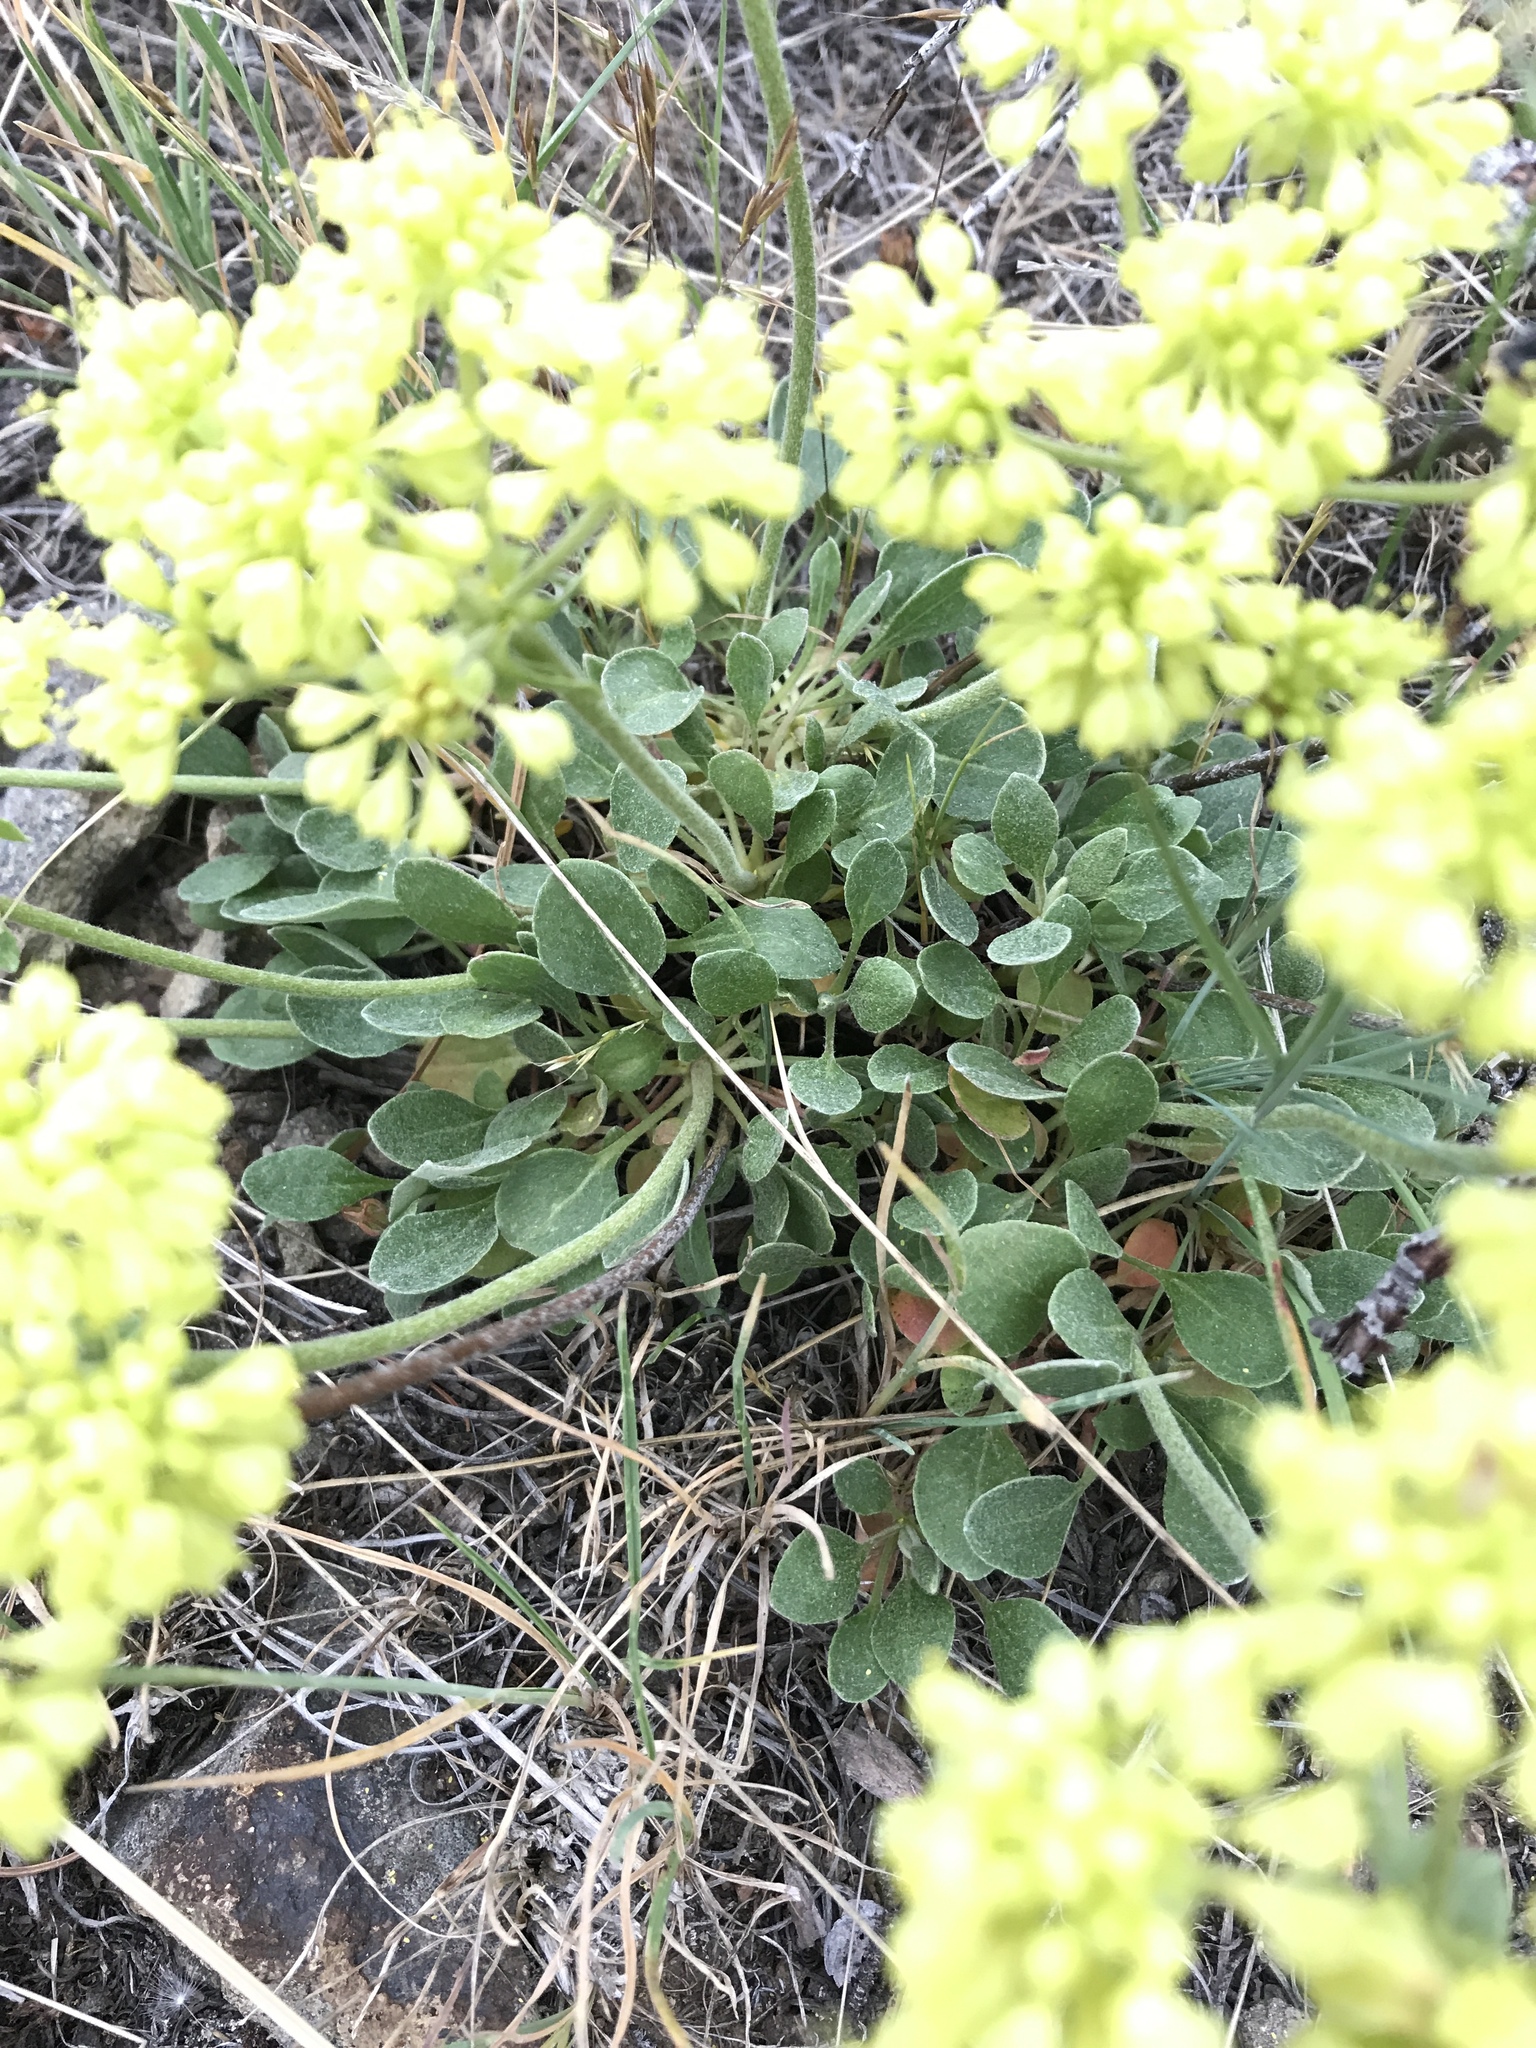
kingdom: Plantae
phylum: Tracheophyta
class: Magnoliopsida
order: Caryophyllales
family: Polygonaceae
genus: Eriogonum
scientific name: Eriogonum umbellatum
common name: Sulfur-buckwheat
